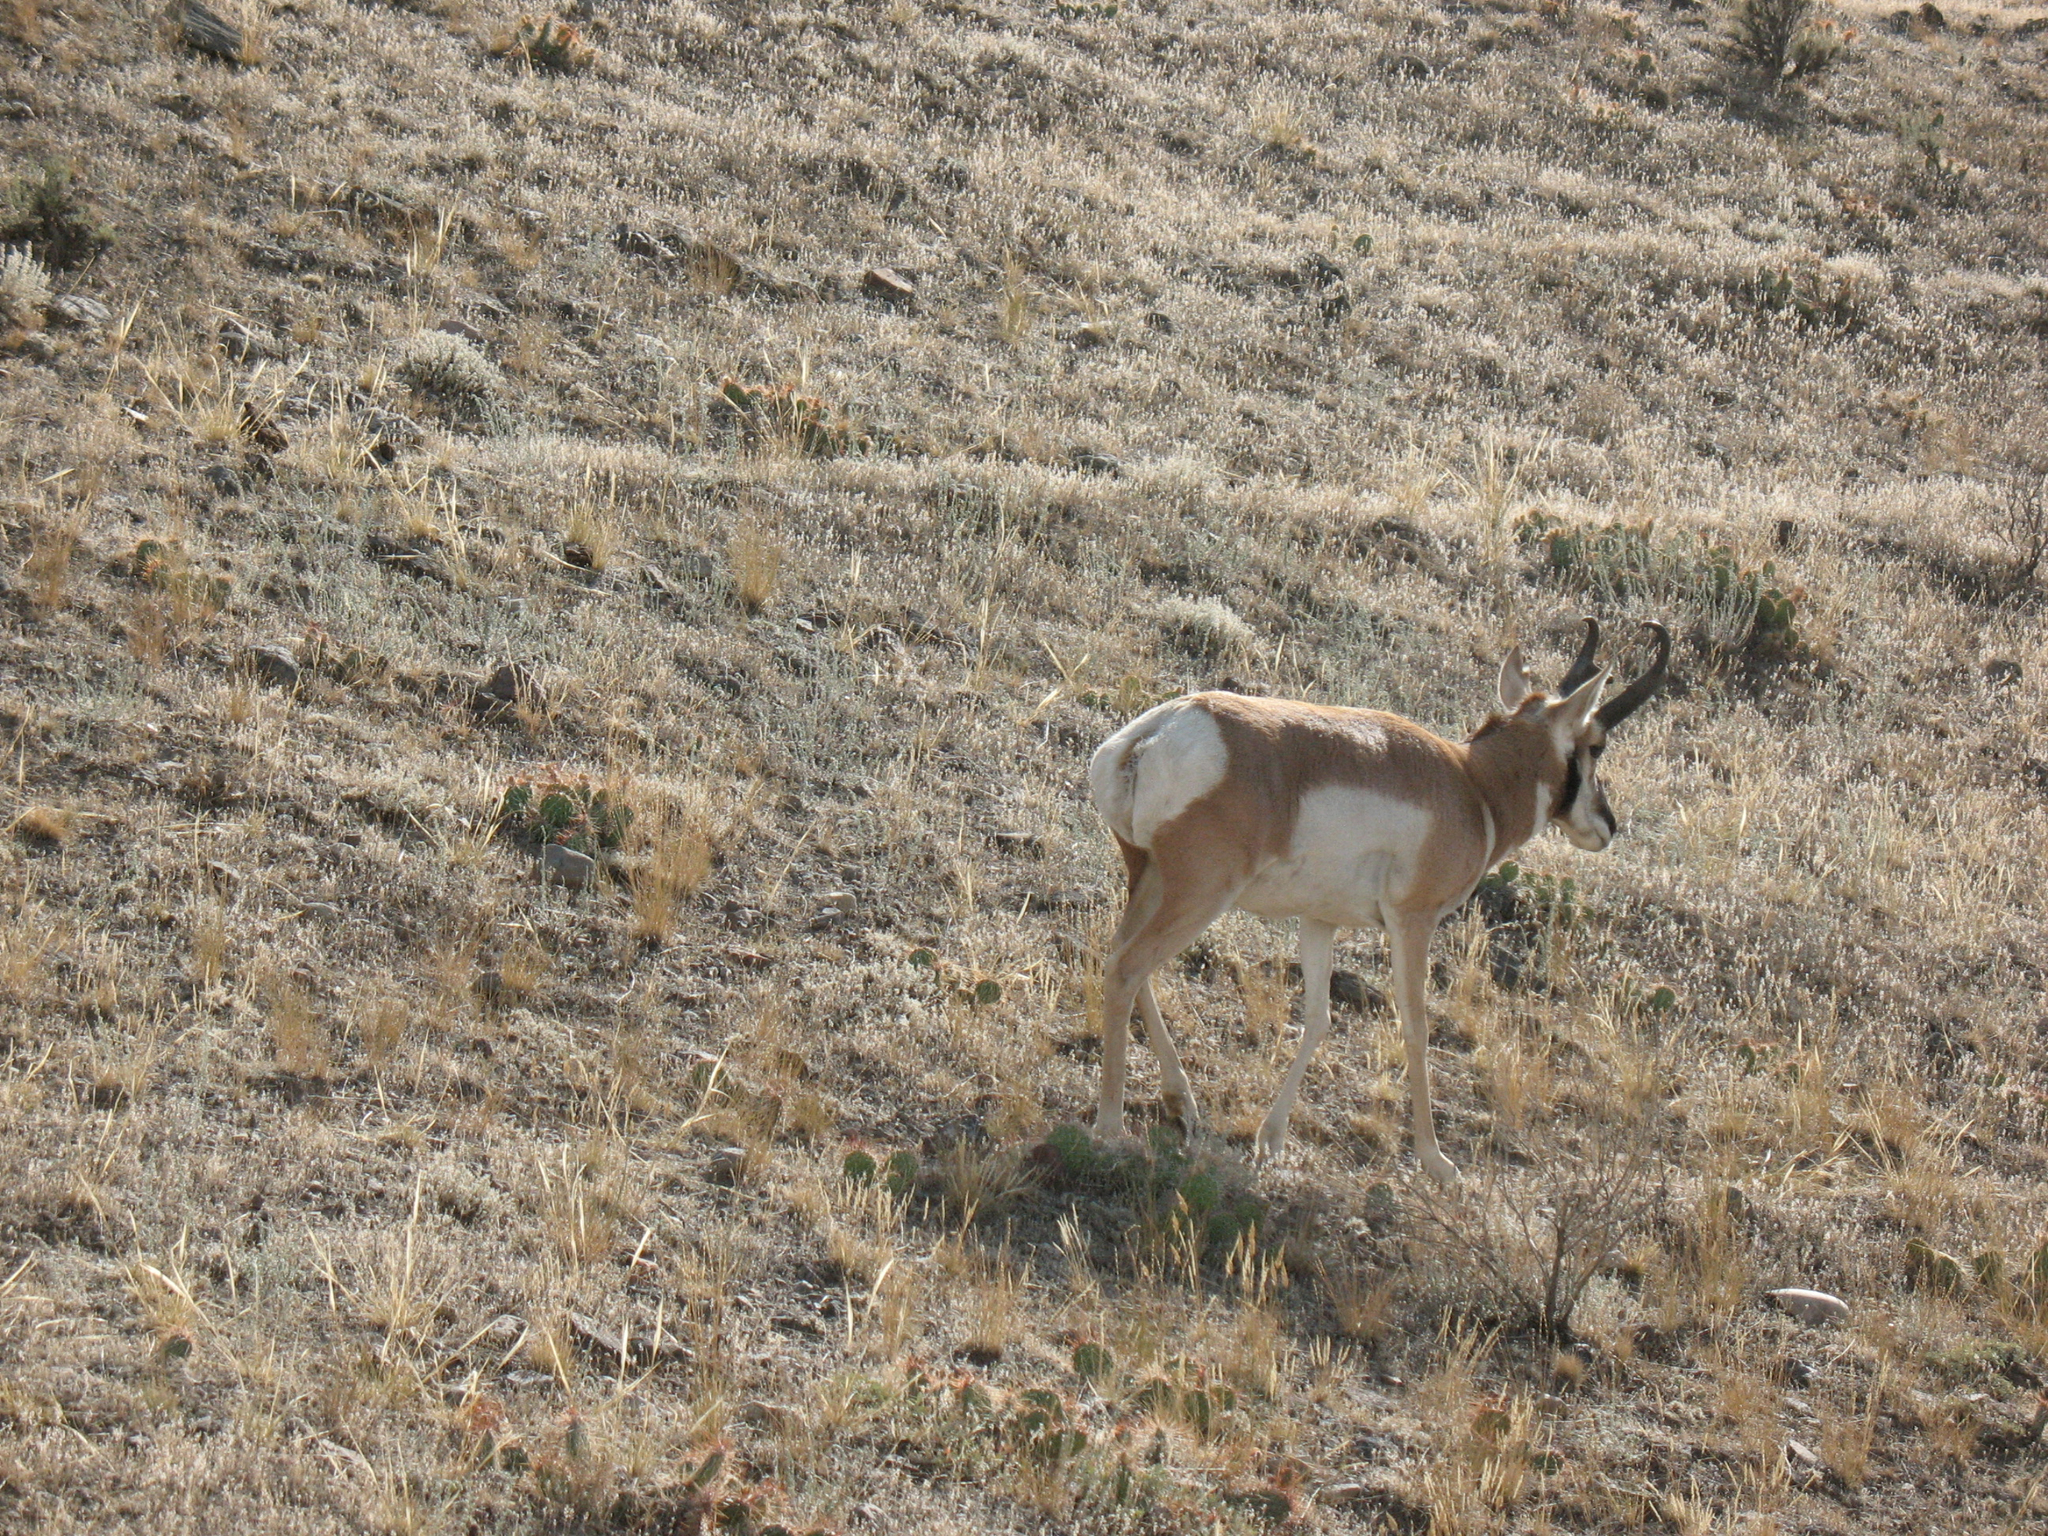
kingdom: Animalia
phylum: Chordata
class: Mammalia
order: Artiodactyla
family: Antilocapridae
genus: Antilocapra
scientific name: Antilocapra americana
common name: Pronghorn
